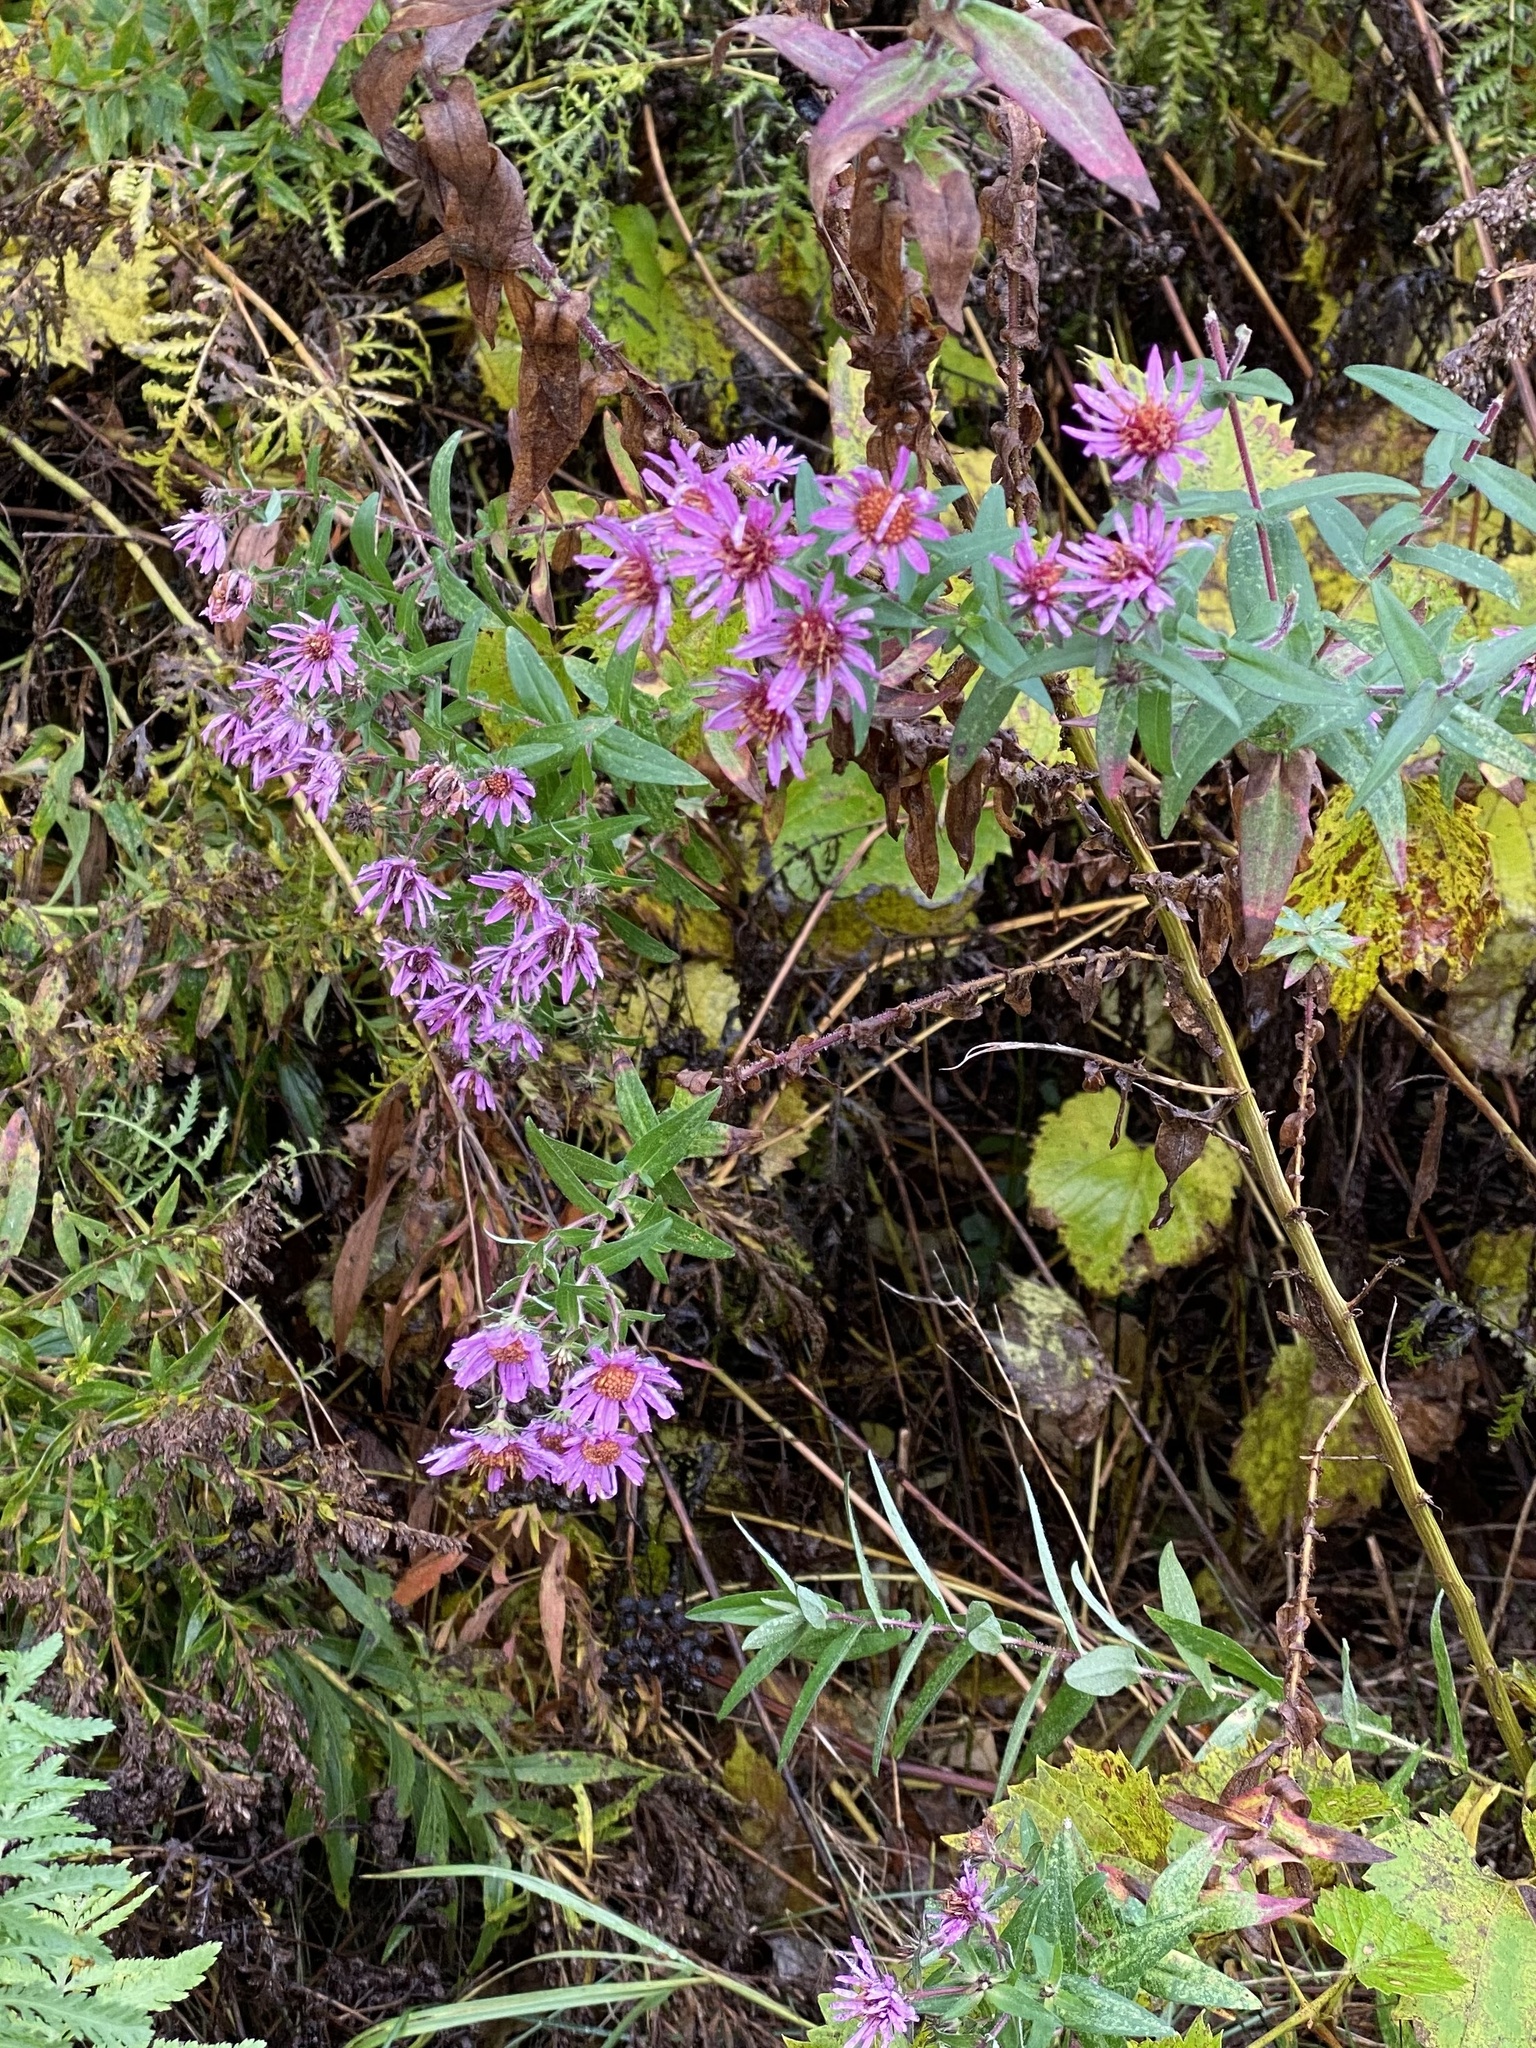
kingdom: Plantae
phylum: Tracheophyta
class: Magnoliopsida
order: Asterales
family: Asteraceae
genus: Symphyotrichum
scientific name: Symphyotrichum novae-angliae
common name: Michaelmas daisy
